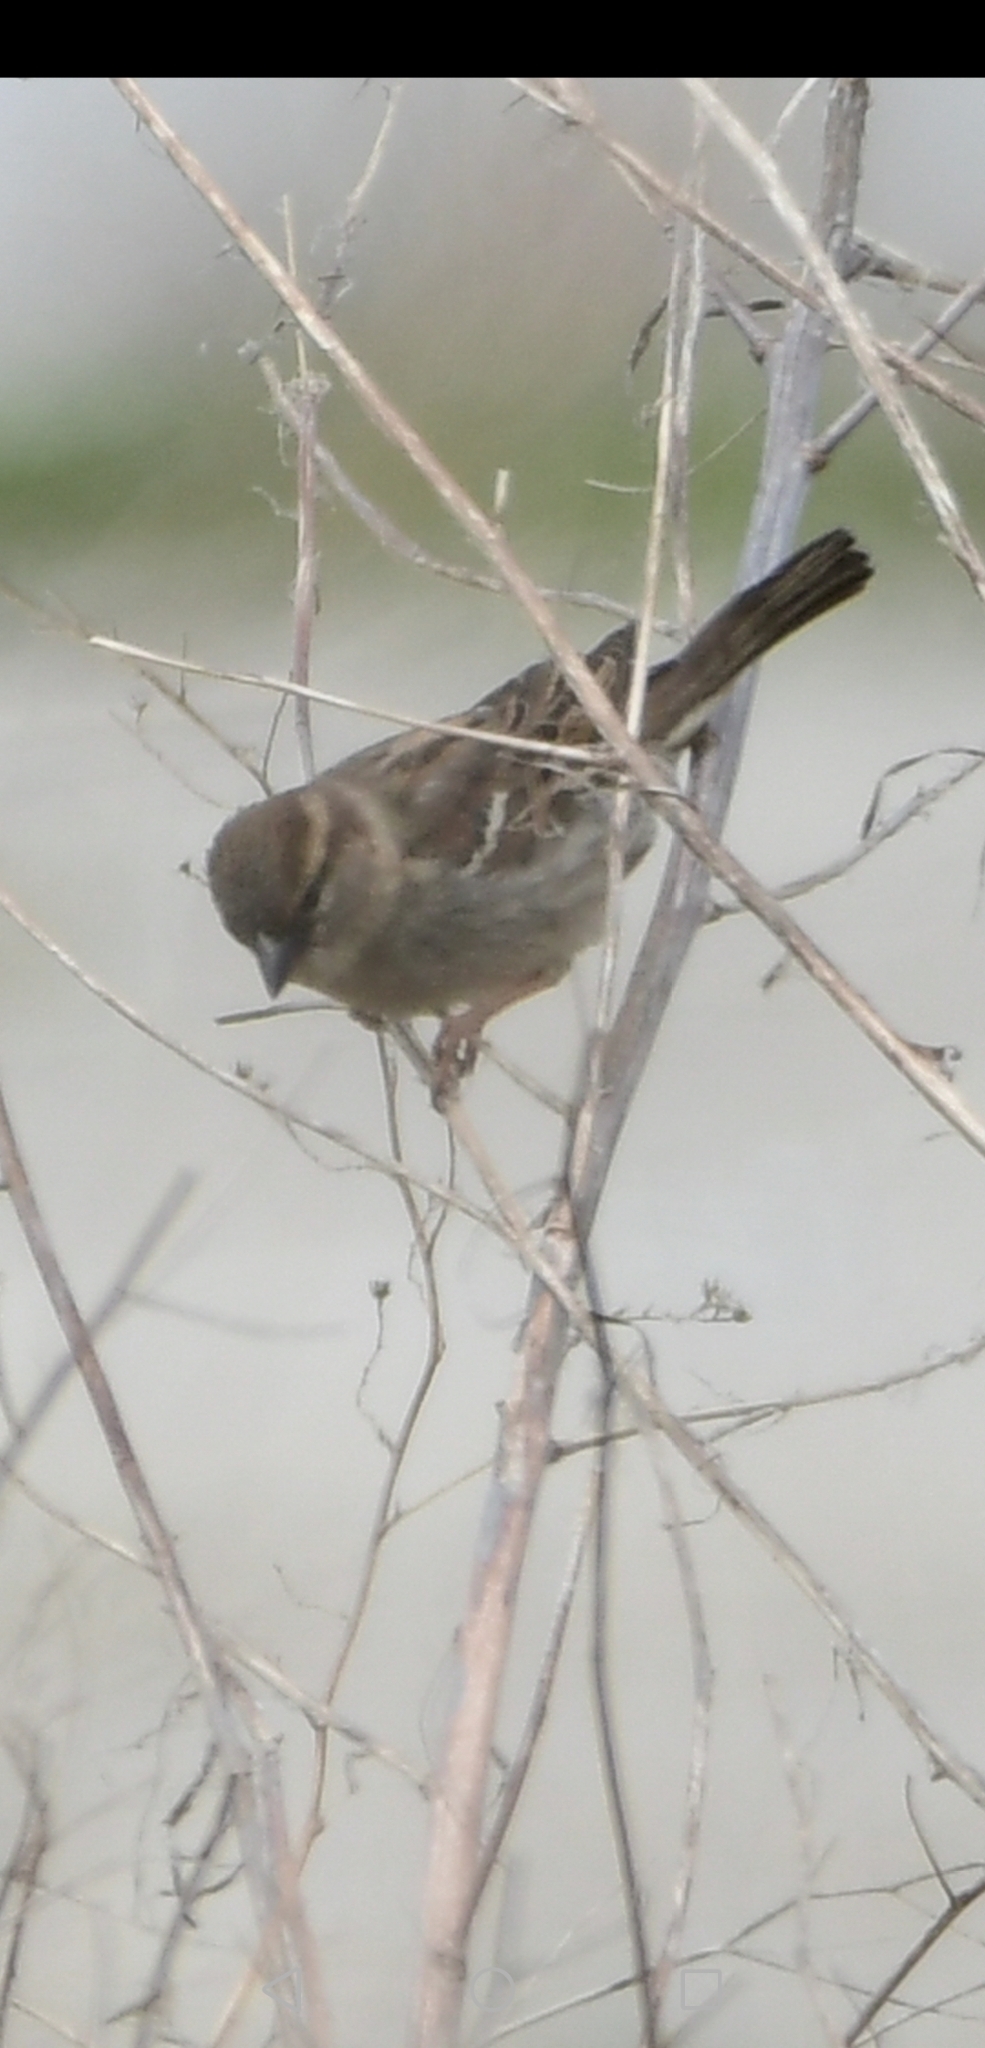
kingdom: Animalia
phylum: Chordata
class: Aves
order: Passeriformes
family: Passeridae
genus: Passer
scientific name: Passer domesticus
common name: House sparrow
